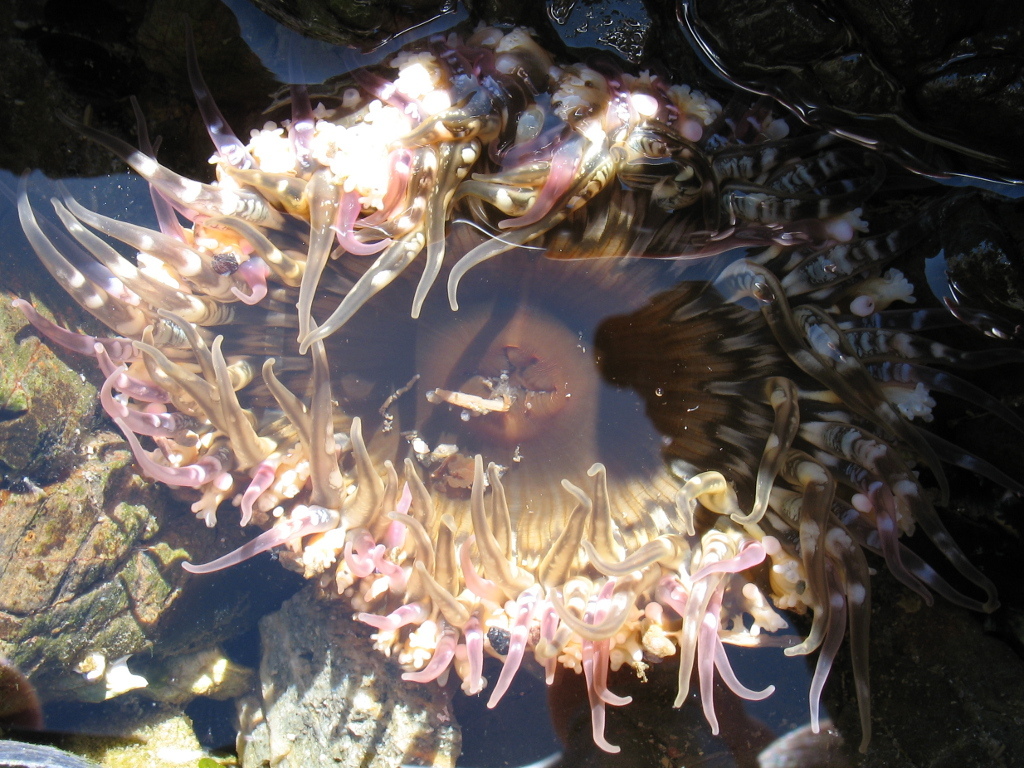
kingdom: Animalia
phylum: Cnidaria
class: Anthozoa
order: Actiniaria
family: Actiniidae
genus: Oulactis
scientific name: Oulactis muscosa
